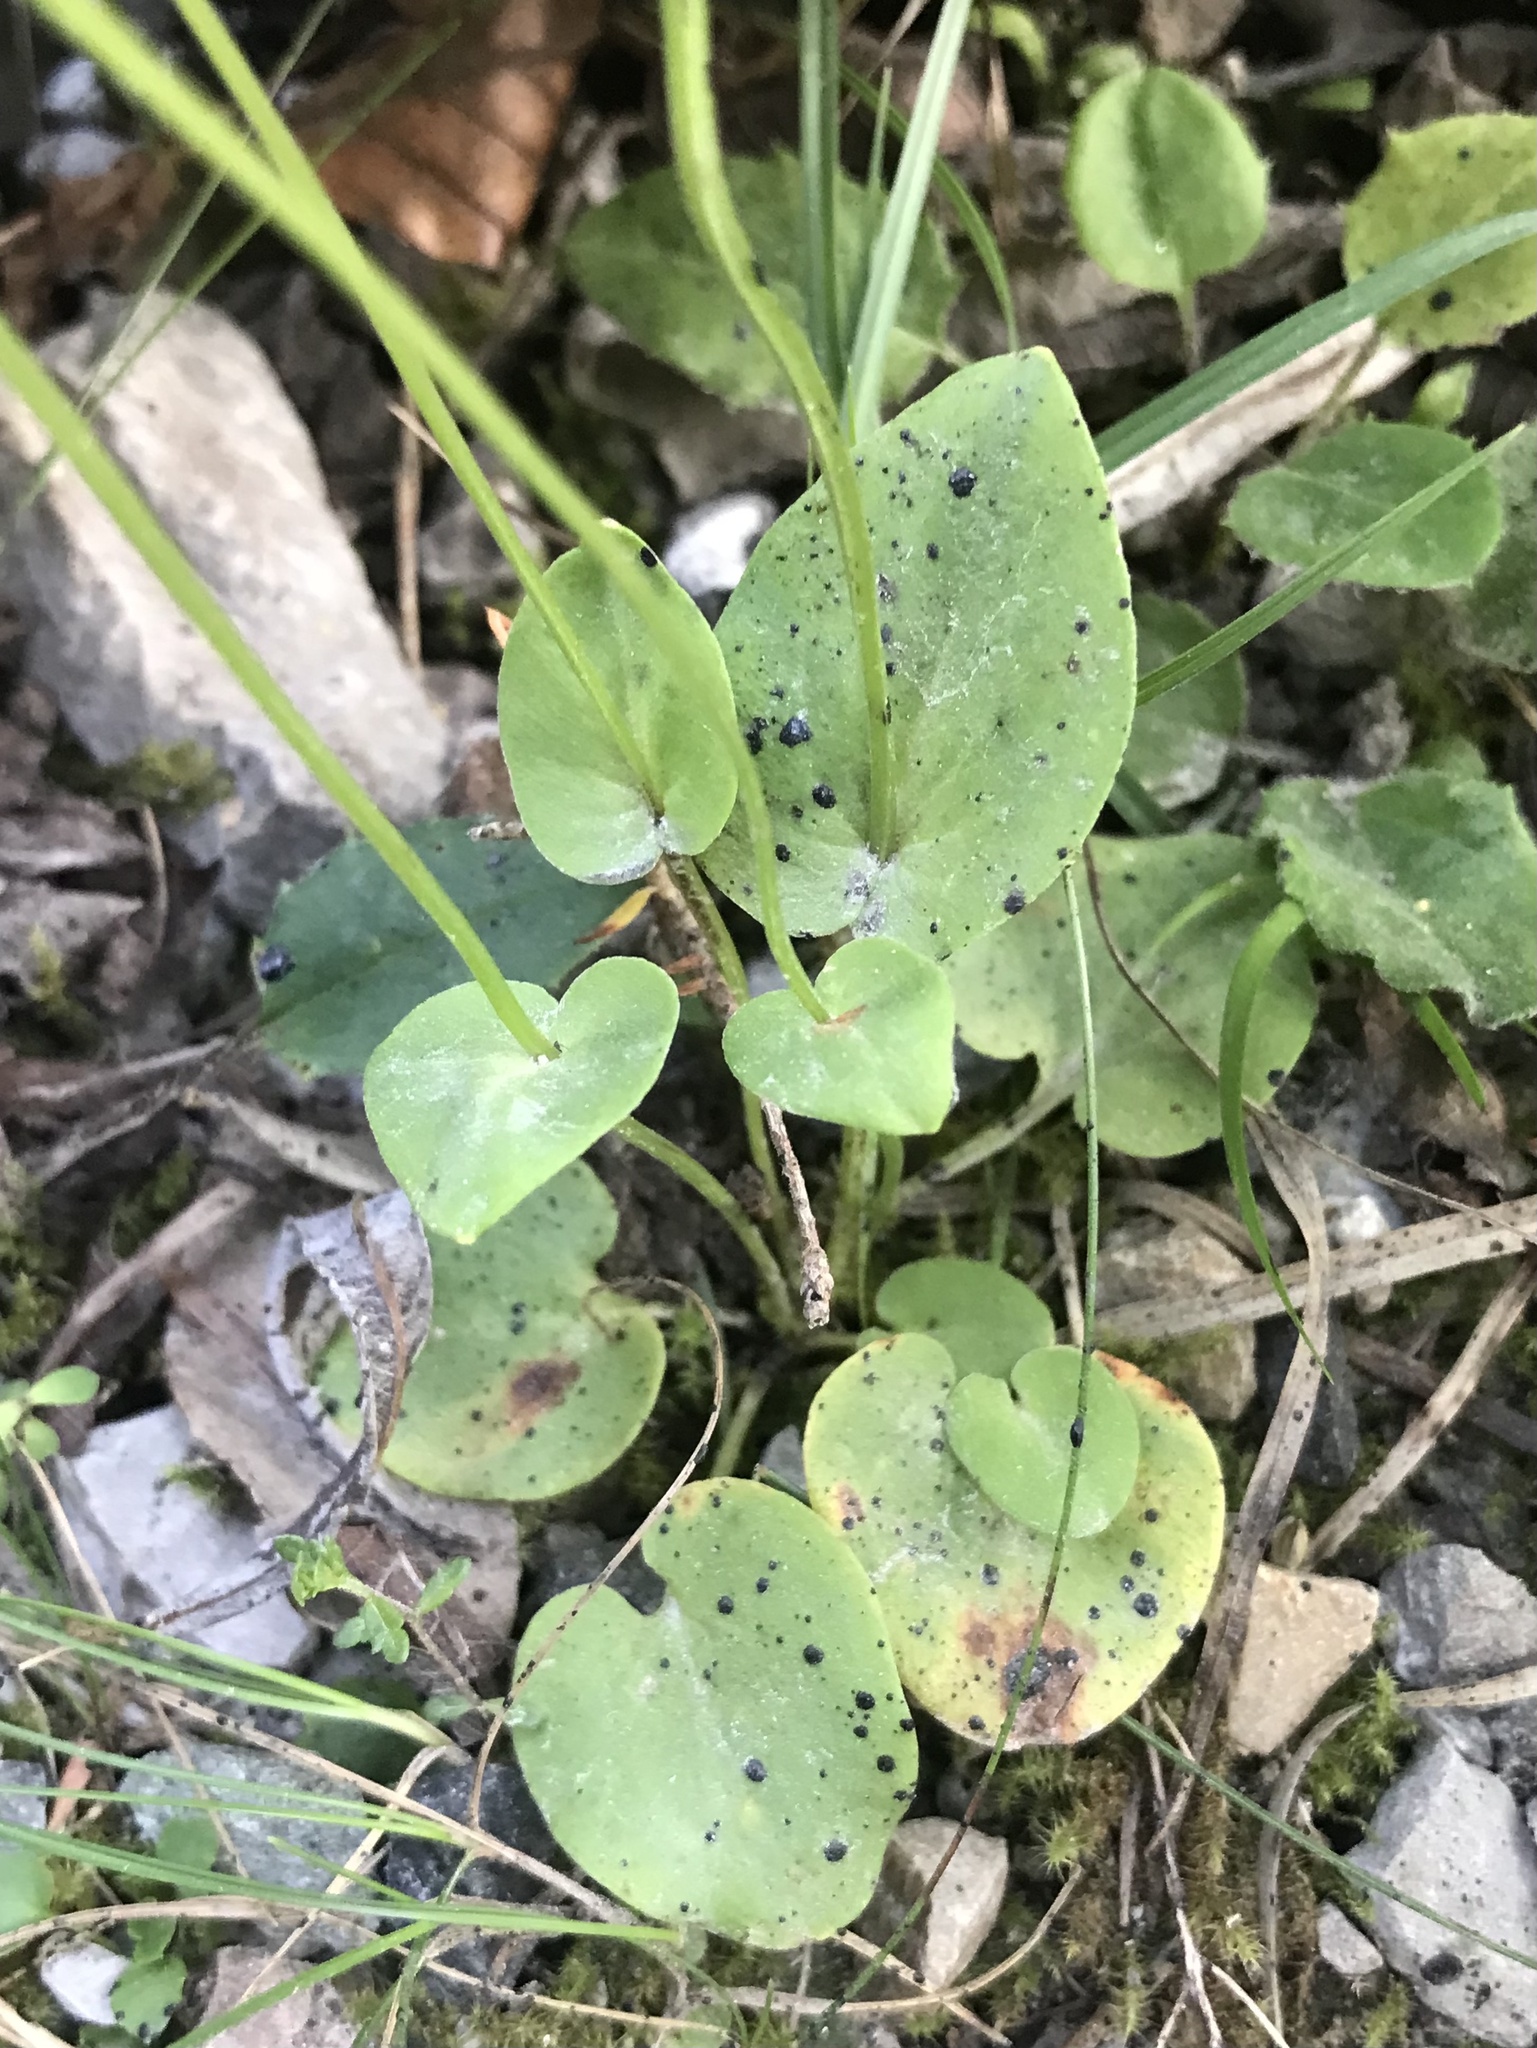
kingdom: Plantae
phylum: Tracheophyta
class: Magnoliopsida
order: Celastrales
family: Parnassiaceae
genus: Parnassia
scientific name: Parnassia palustris
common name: Grass-of-parnassus
